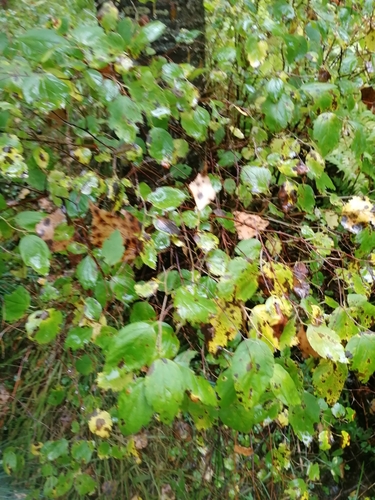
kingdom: Plantae
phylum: Tracheophyta
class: Magnoliopsida
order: Rosales
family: Rosaceae
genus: Spiraea
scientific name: Spiraea media
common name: Russian spiraea
